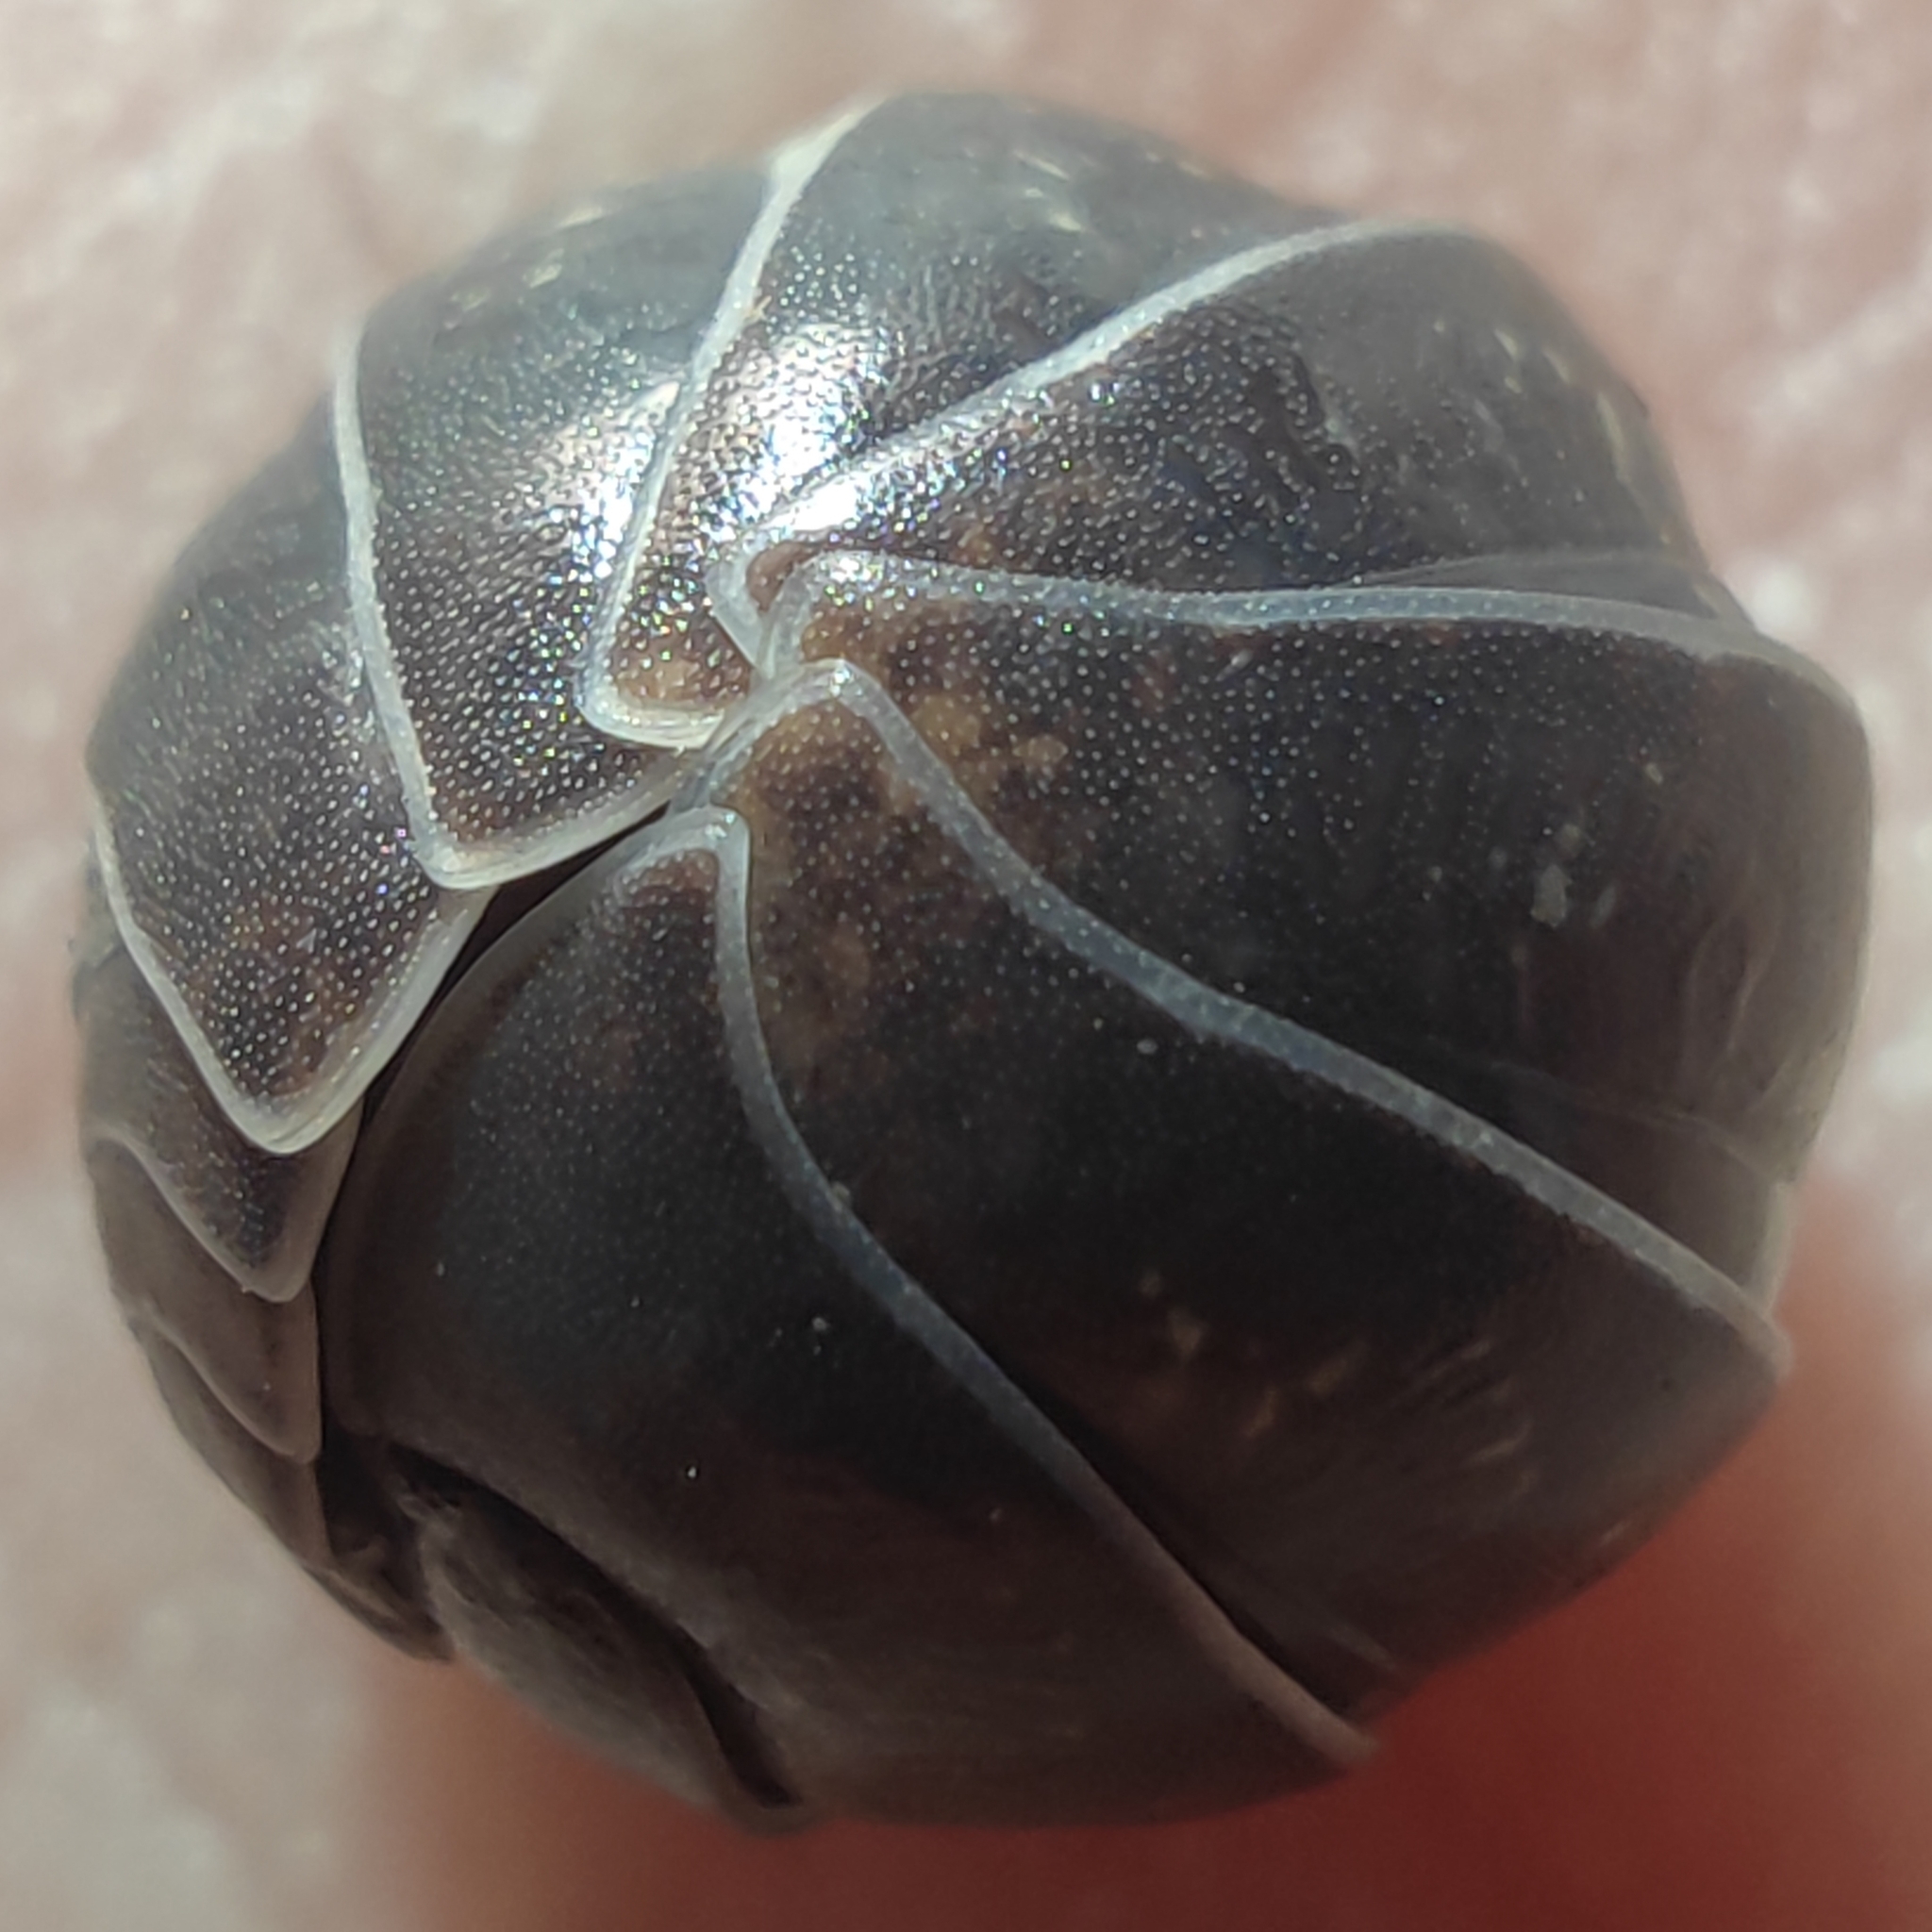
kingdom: Animalia
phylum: Arthropoda
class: Malacostraca
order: Isopoda
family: Armadillidiidae
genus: Armadillidium
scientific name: Armadillidium vulgare
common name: Common pill woodlouse
